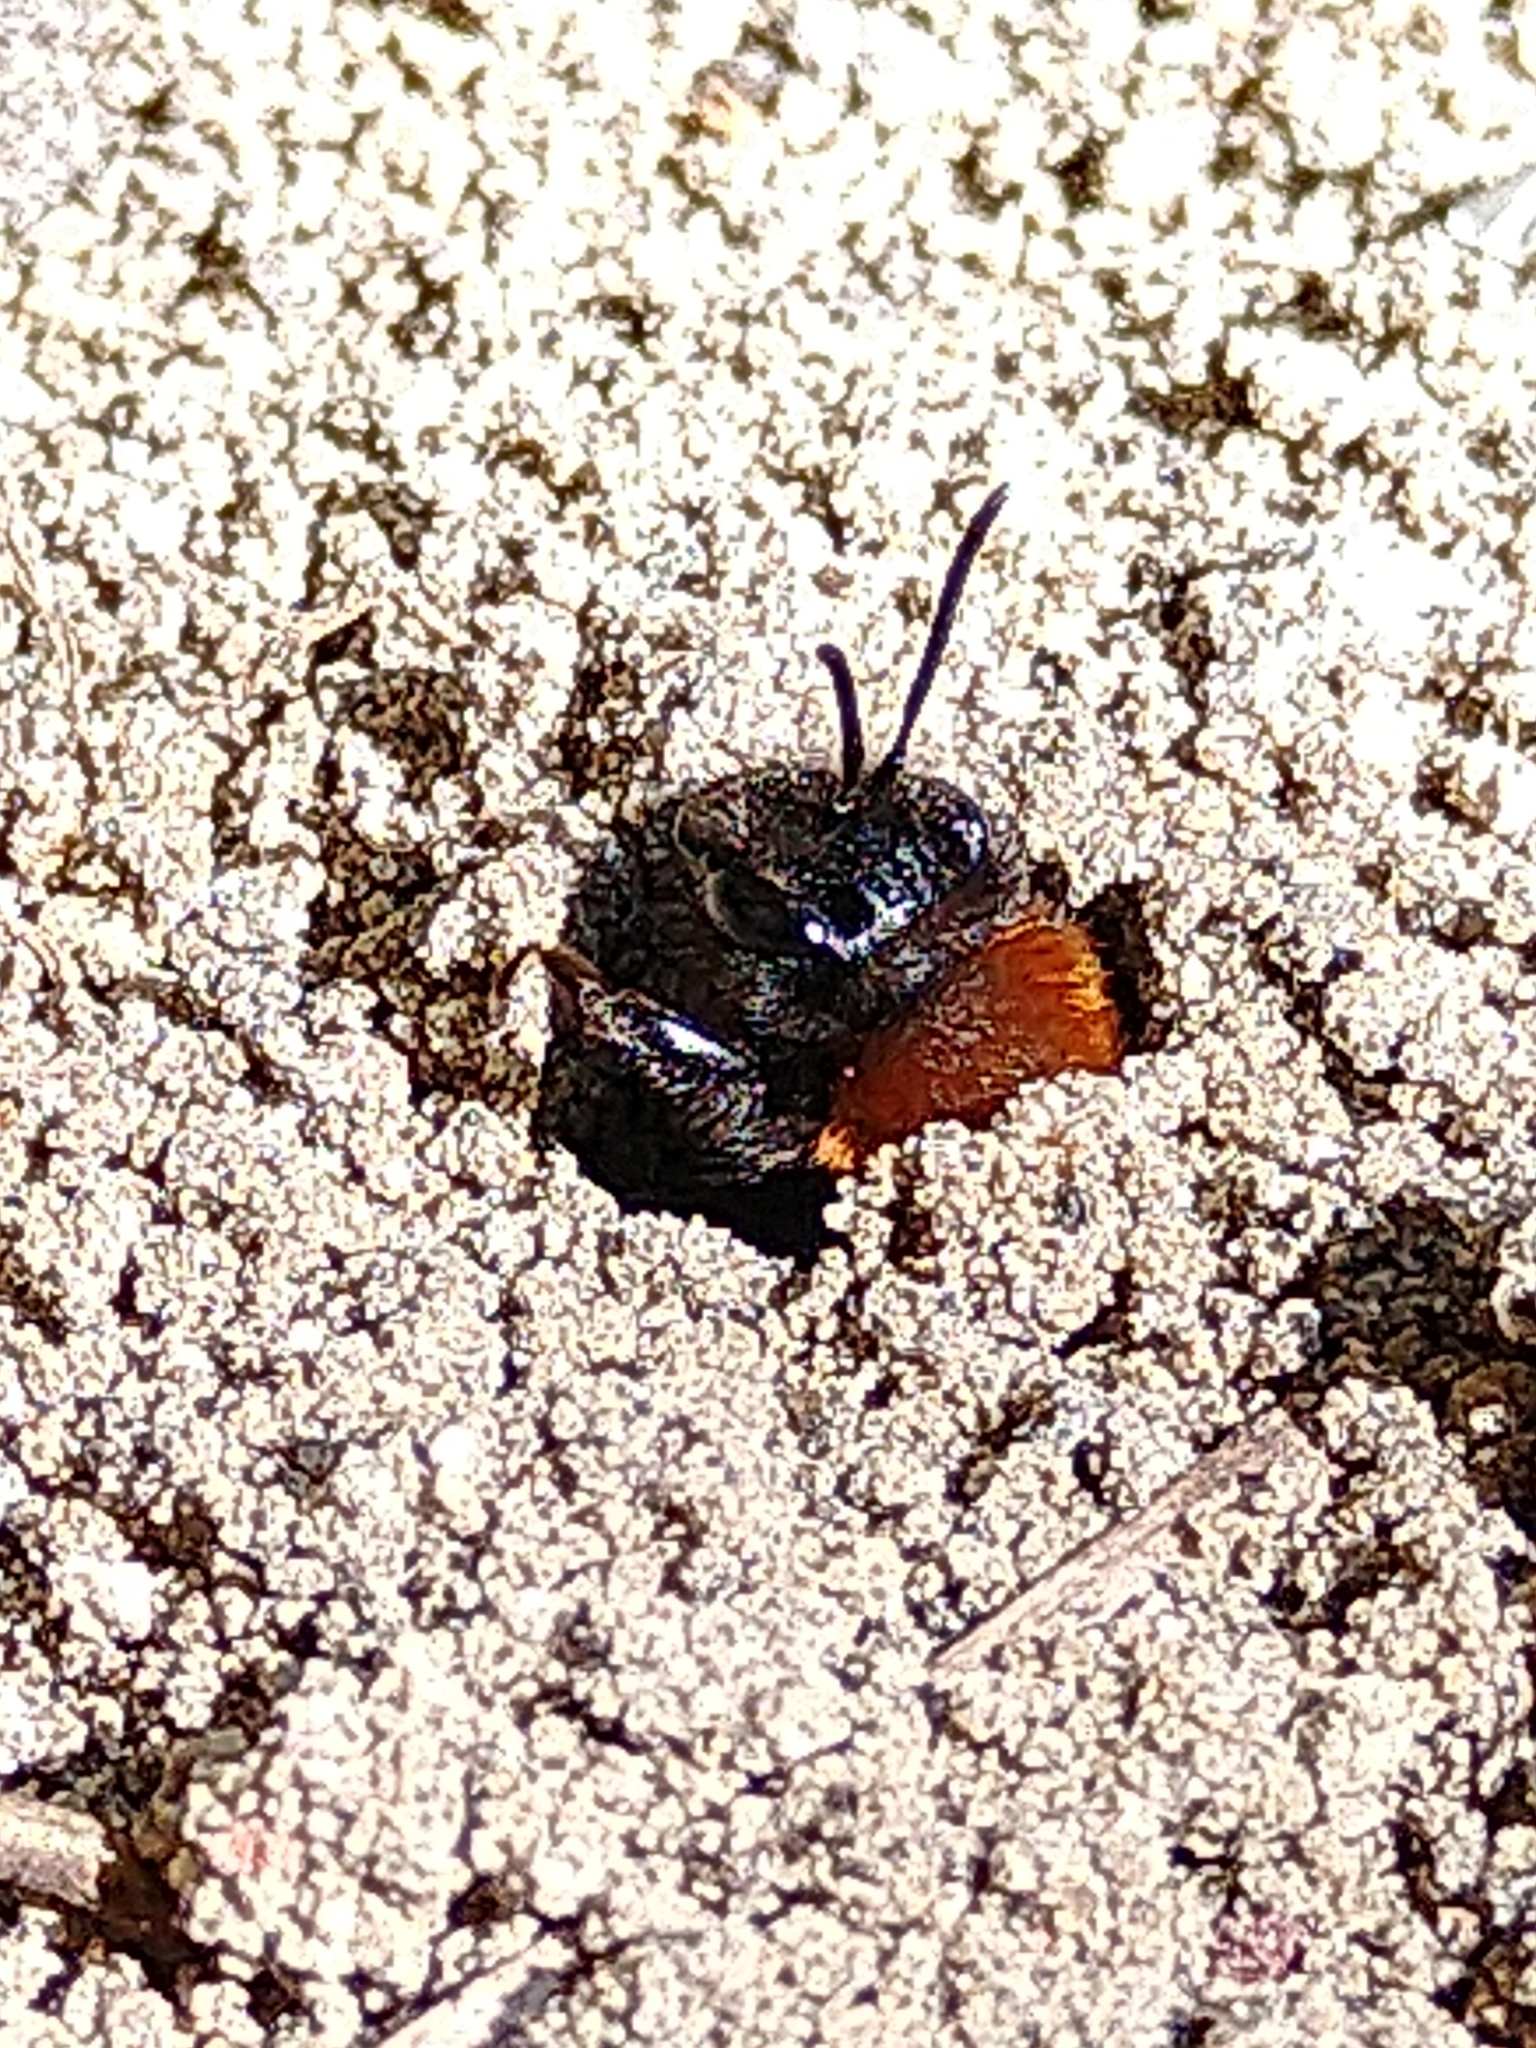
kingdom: Animalia
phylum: Arthropoda
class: Insecta
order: Hymenoptera
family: Andrenidae
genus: Andrena
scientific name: Andrena fulva
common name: Tawny mining bee
